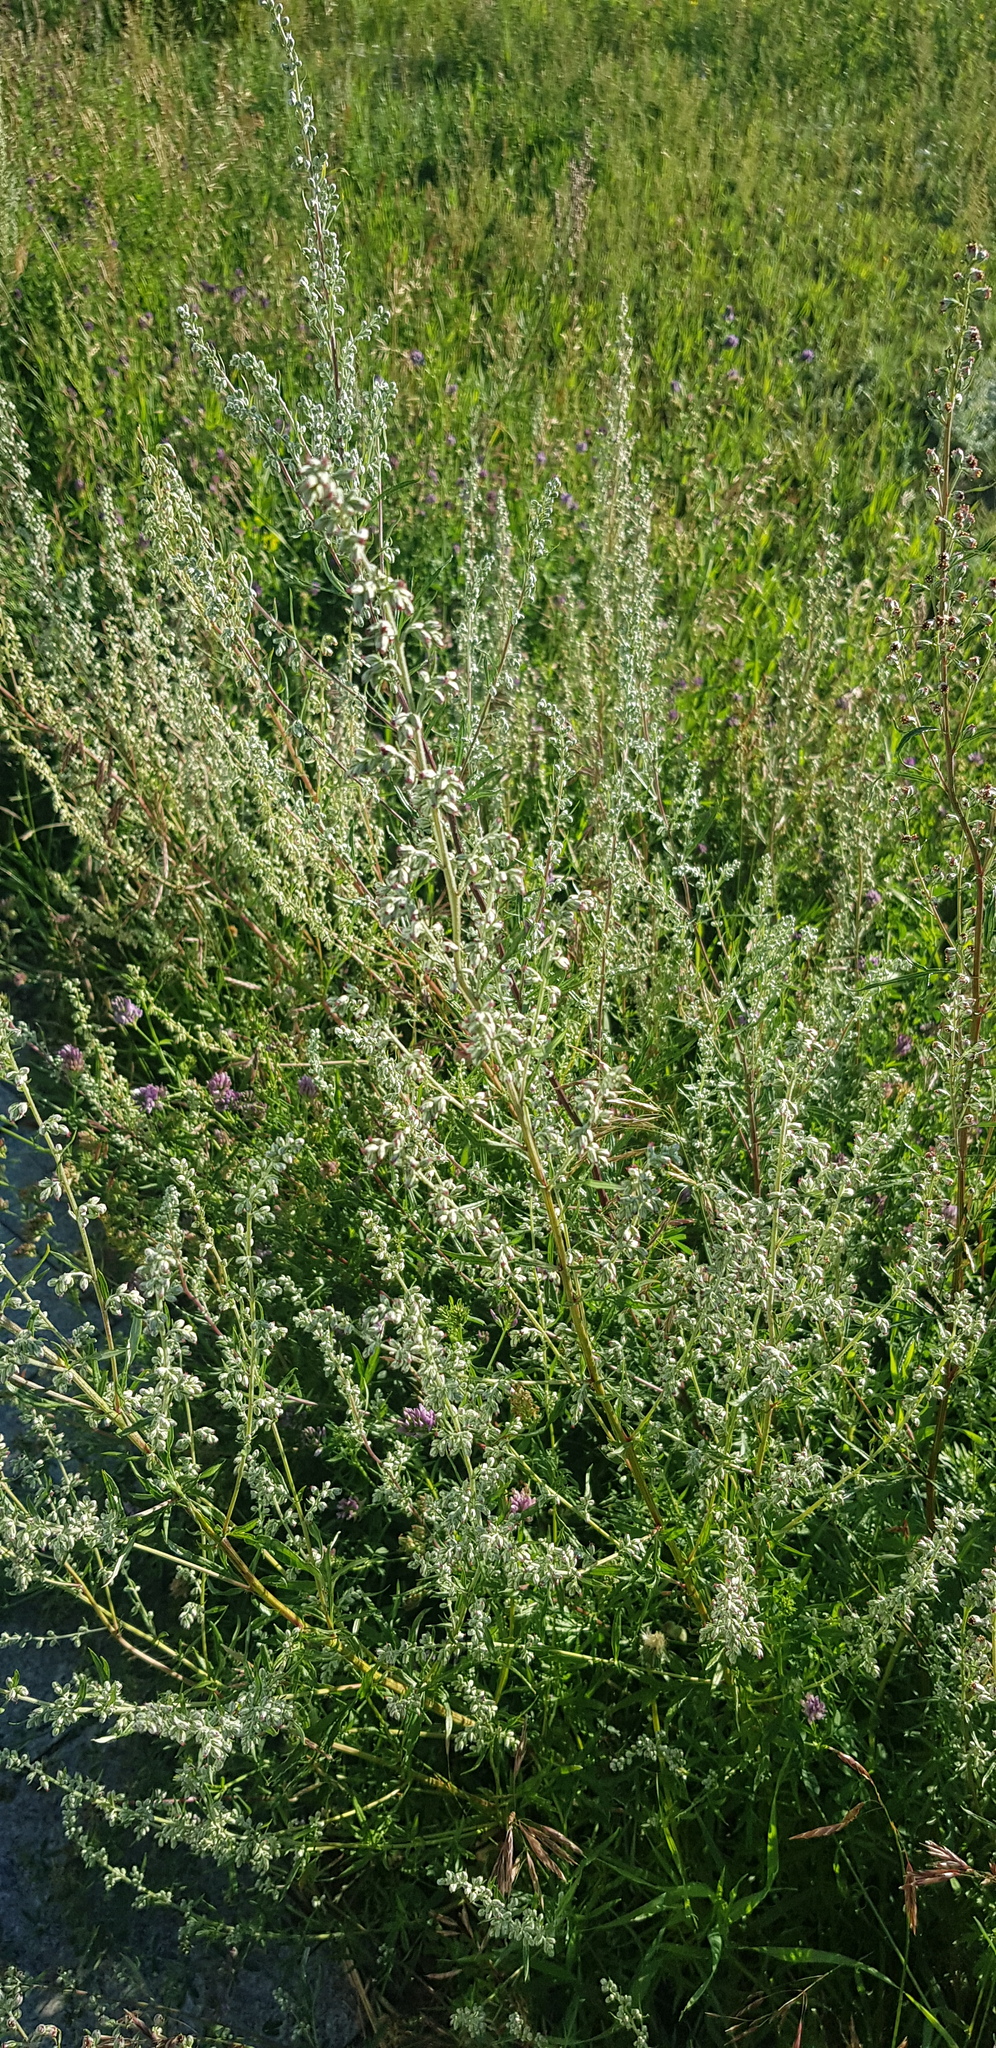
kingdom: Plantae
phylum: Tracheophyta
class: Magnoliopsida
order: Asterales
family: Asteraceae
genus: Artemisia
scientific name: Artemisia mongolica
